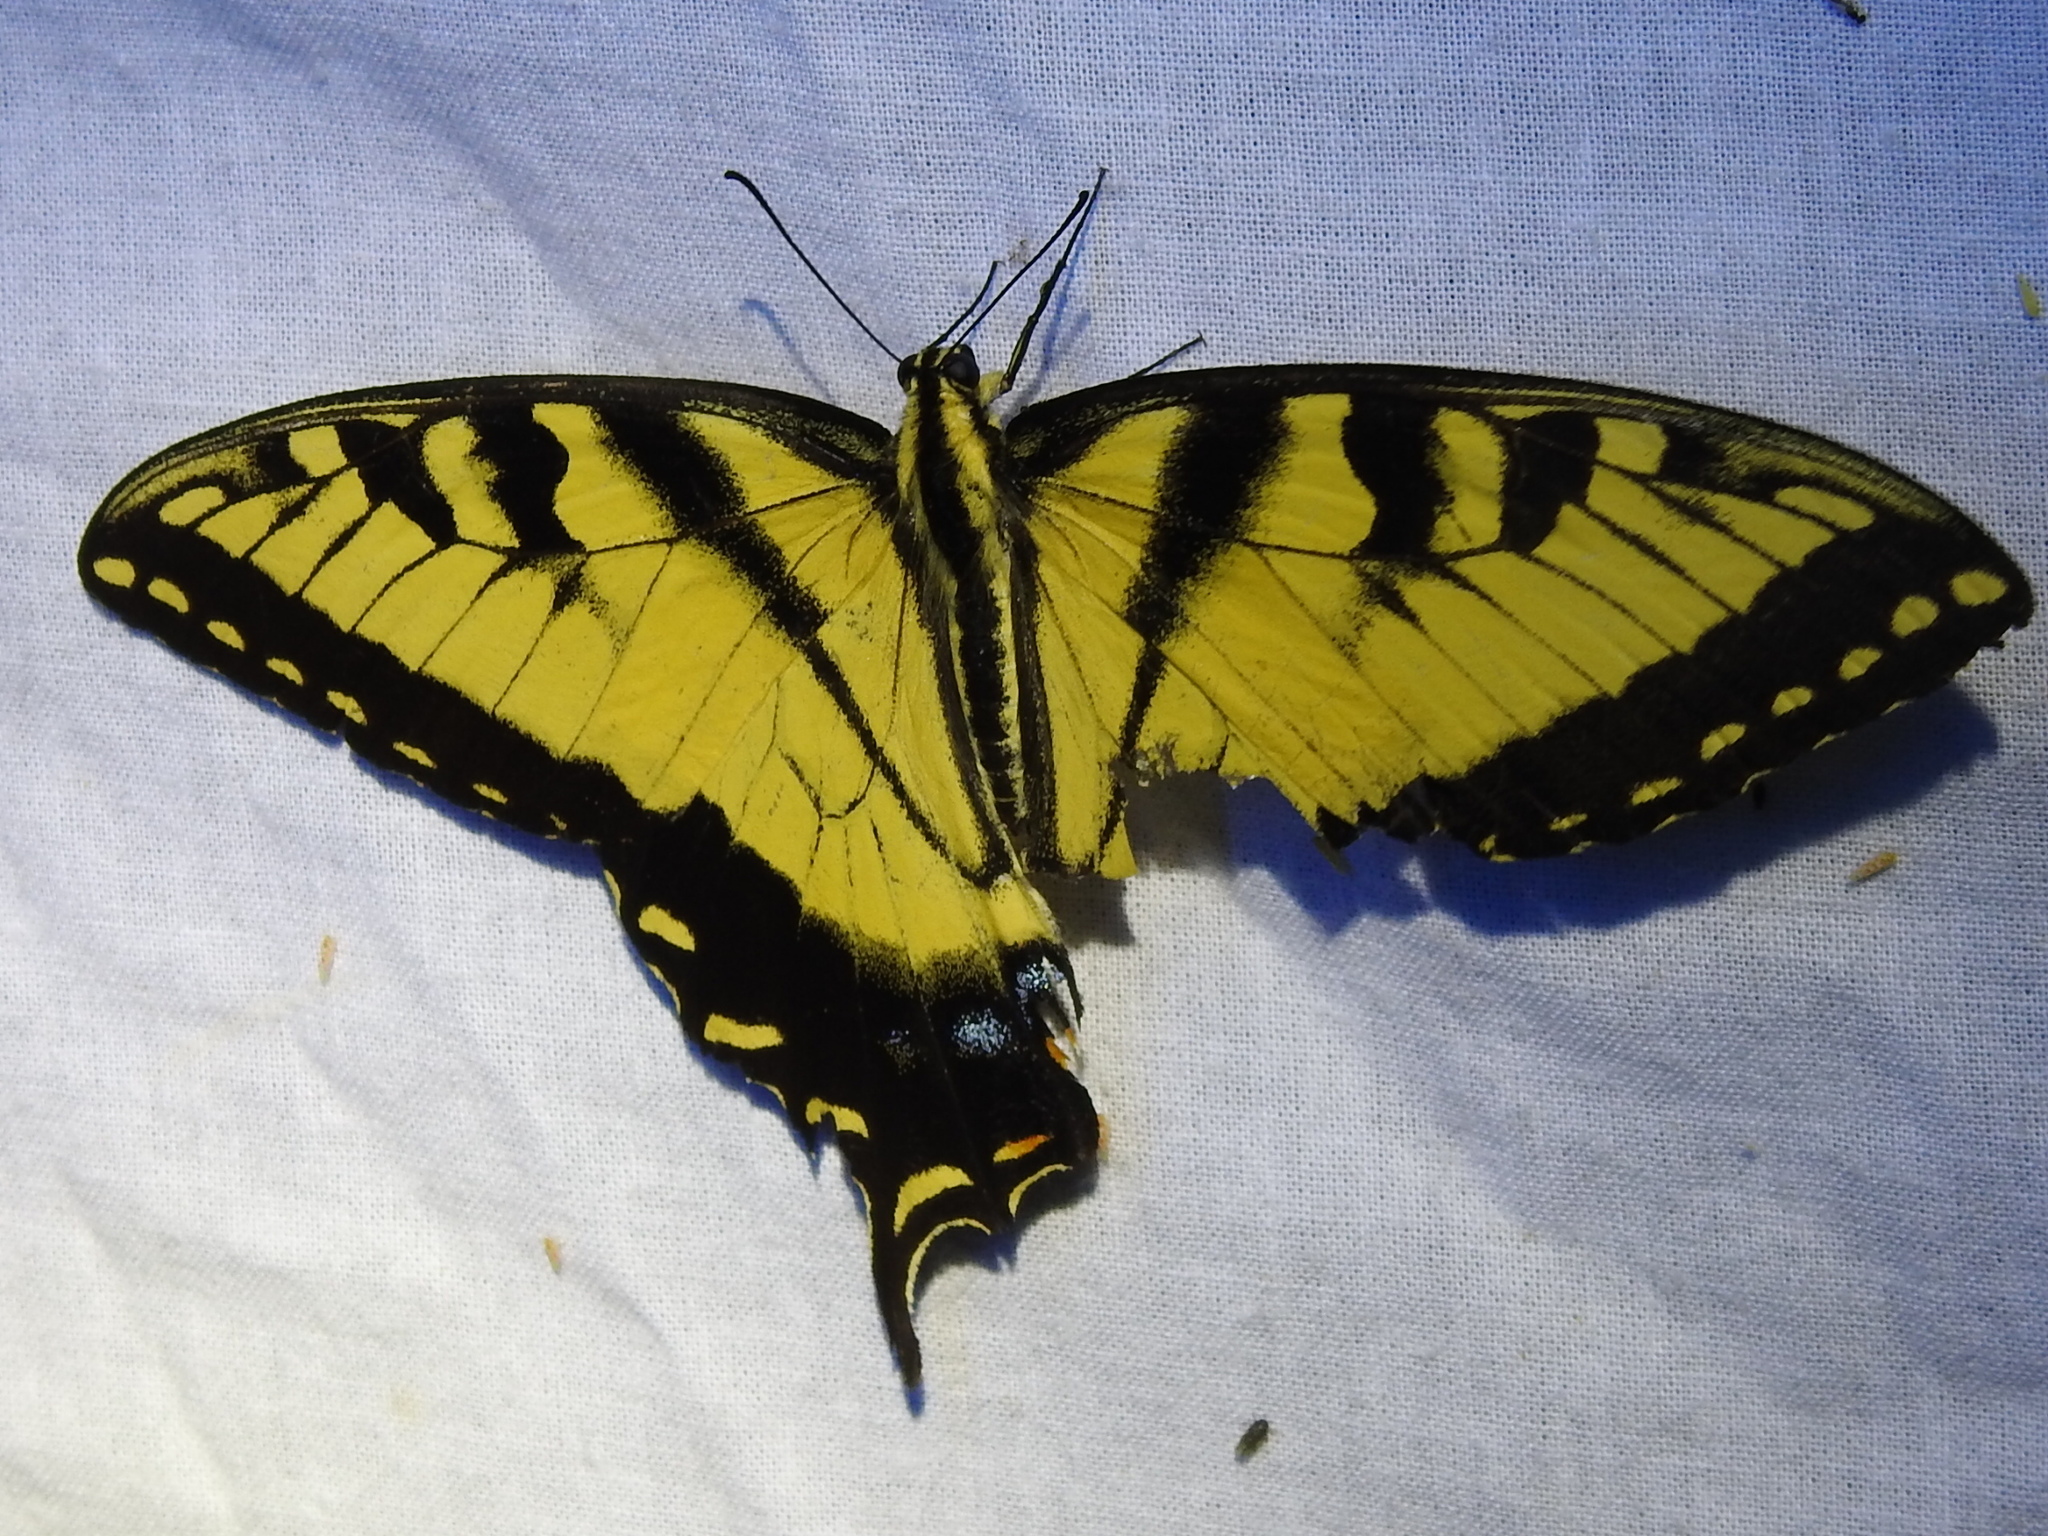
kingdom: Animalia
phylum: Arthropoda
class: Insecta
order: Lepidoptera
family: Papilionidae
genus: Papilio
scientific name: Papilio glaucus
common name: Tiger swallowtail
